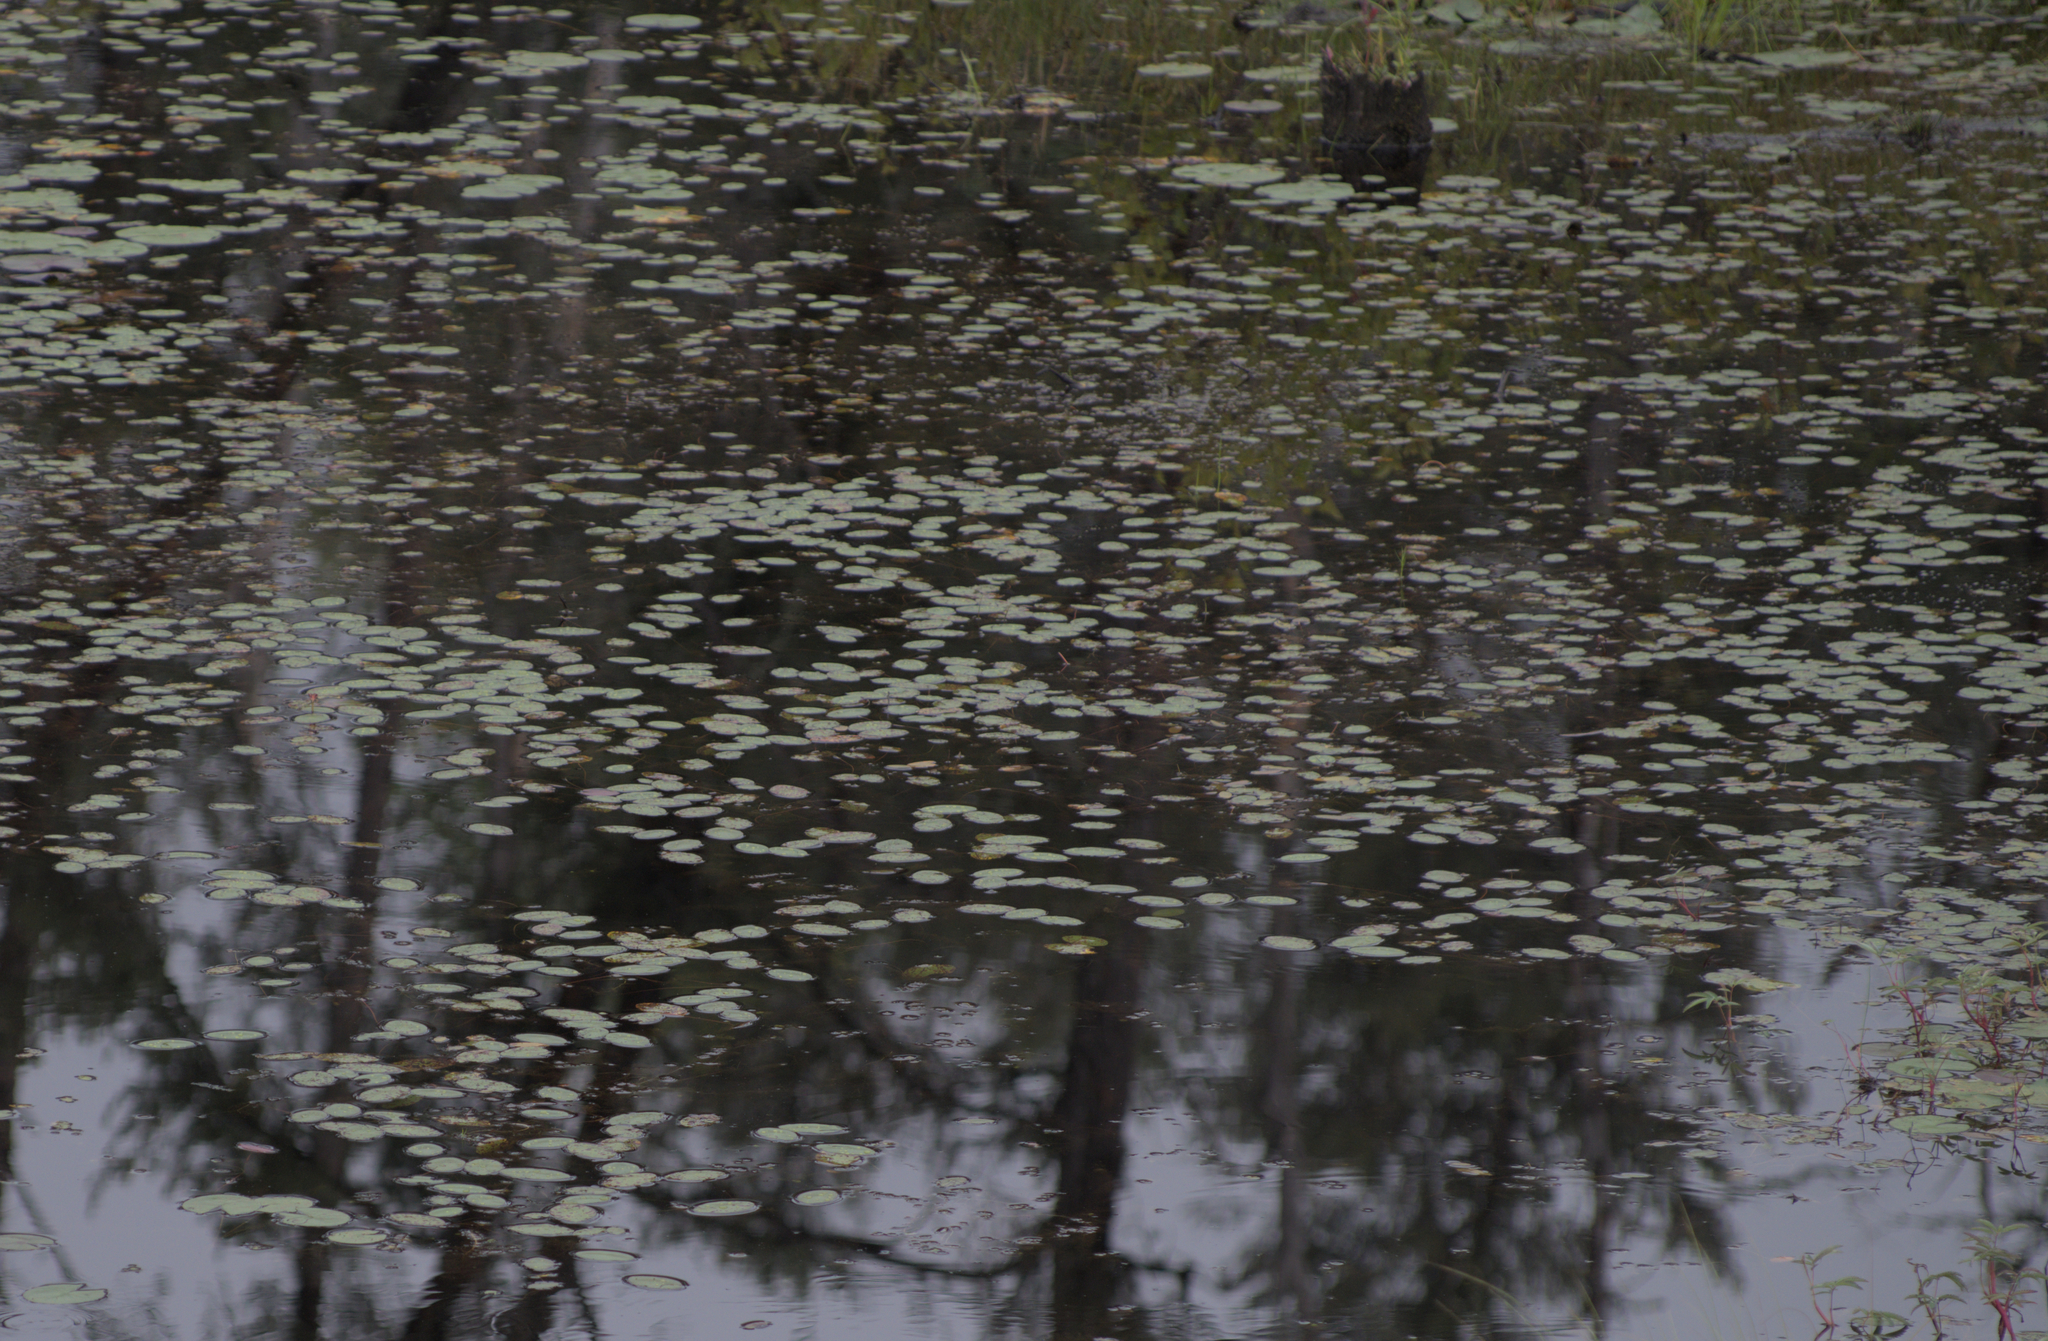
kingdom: Plantae
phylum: Tracheophyta
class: Magnoliopsida
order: Nymphaeales
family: Cabombaceae
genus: Brasenia
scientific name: Brasenia schreberi
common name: Water-shield
